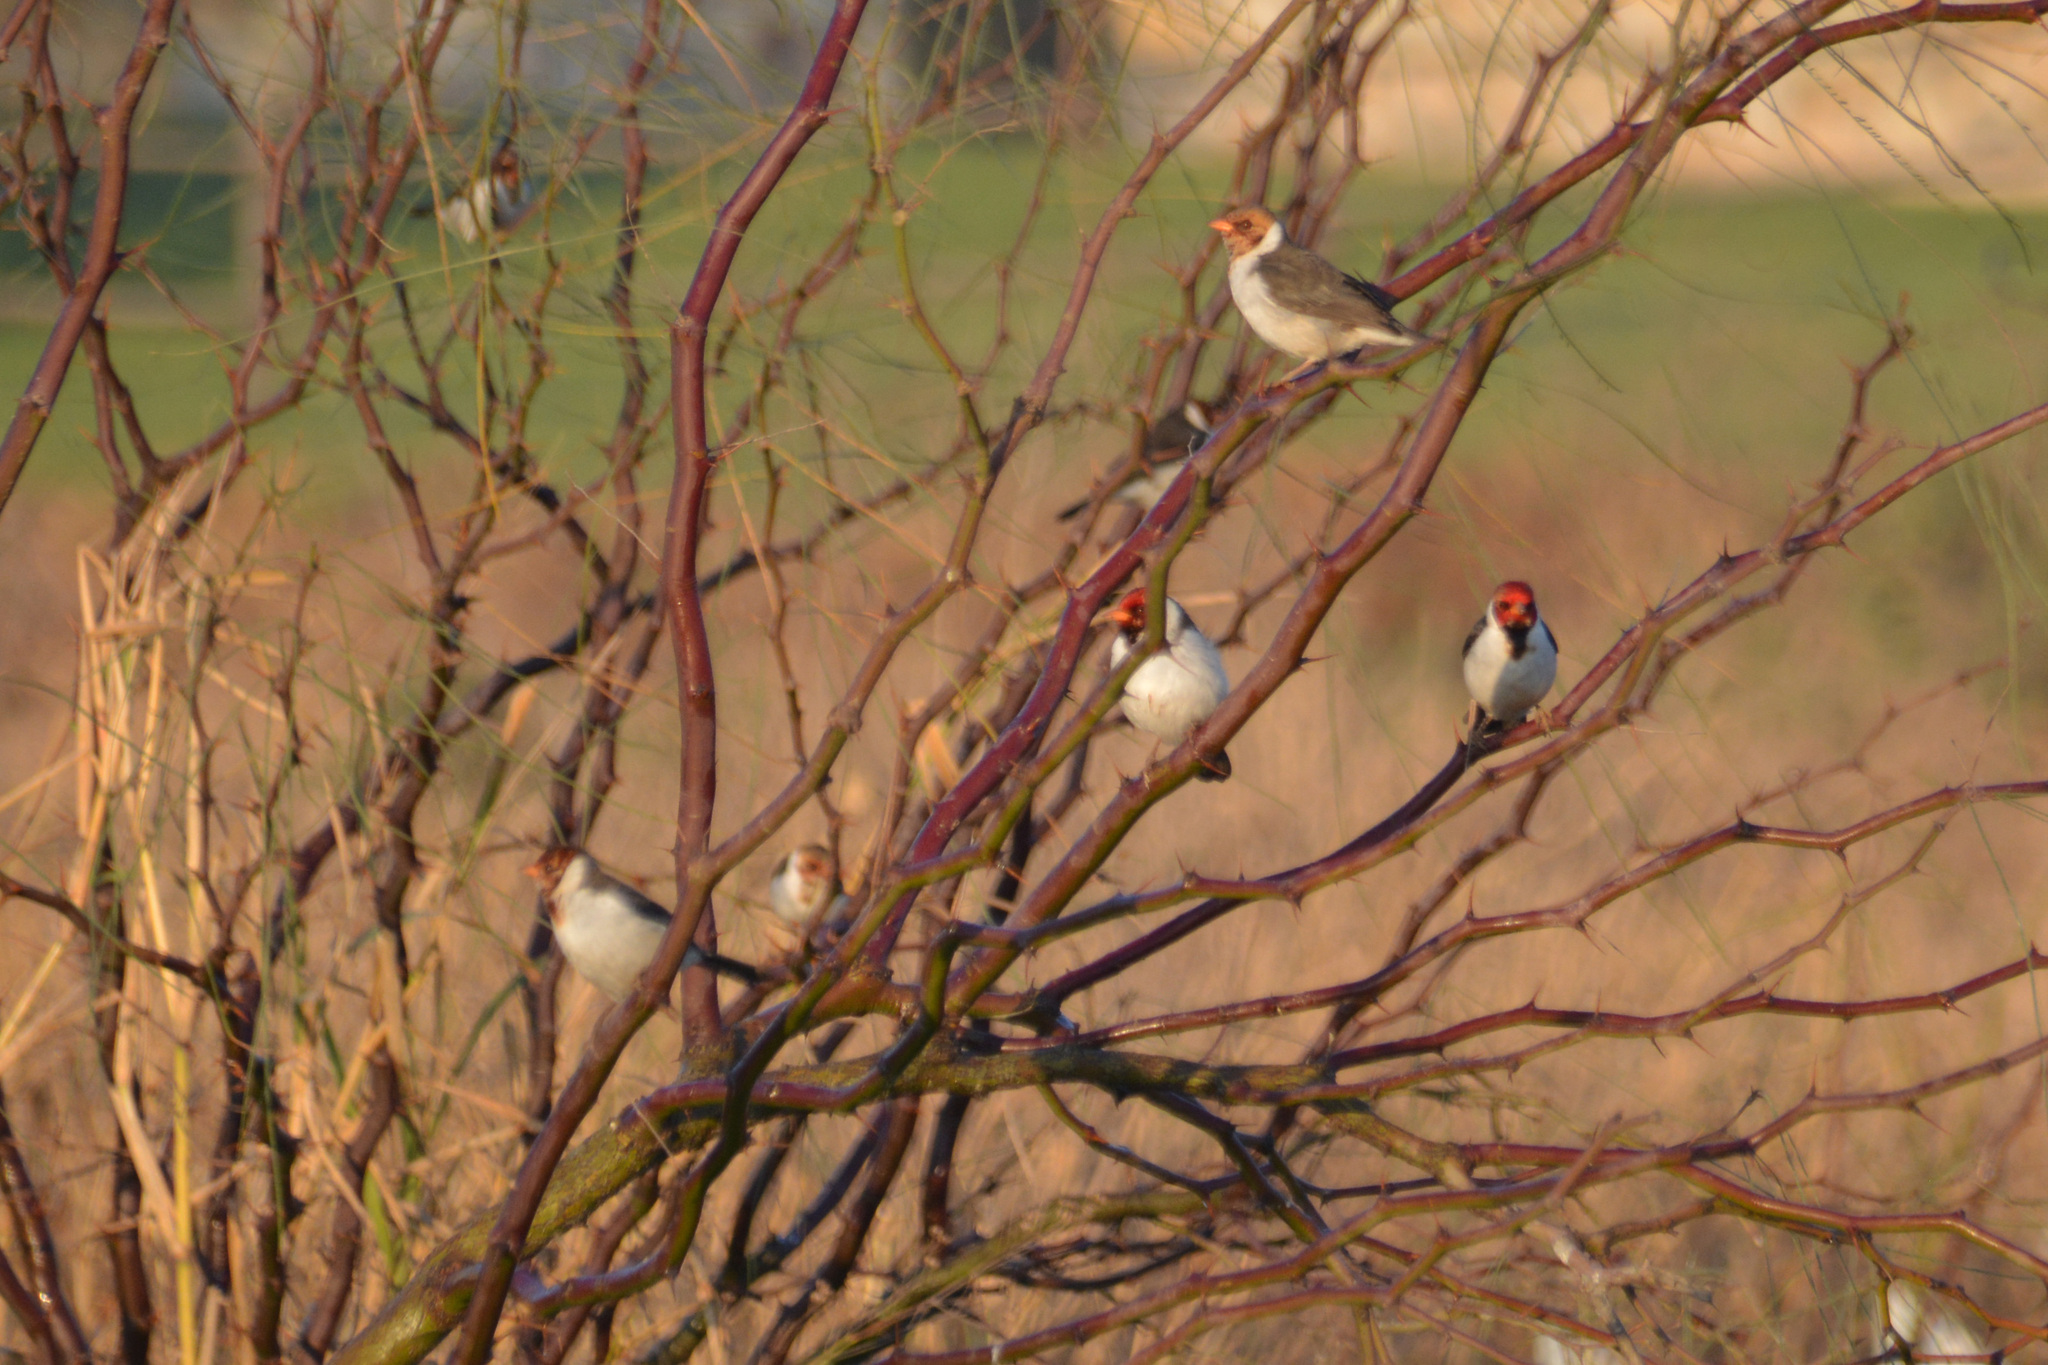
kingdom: Animalia
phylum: Chordata
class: Aves
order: Passeriformes
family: Thraupidae
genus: Paroaria
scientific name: Paroaria capitata
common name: Yellow-billed cardinal
